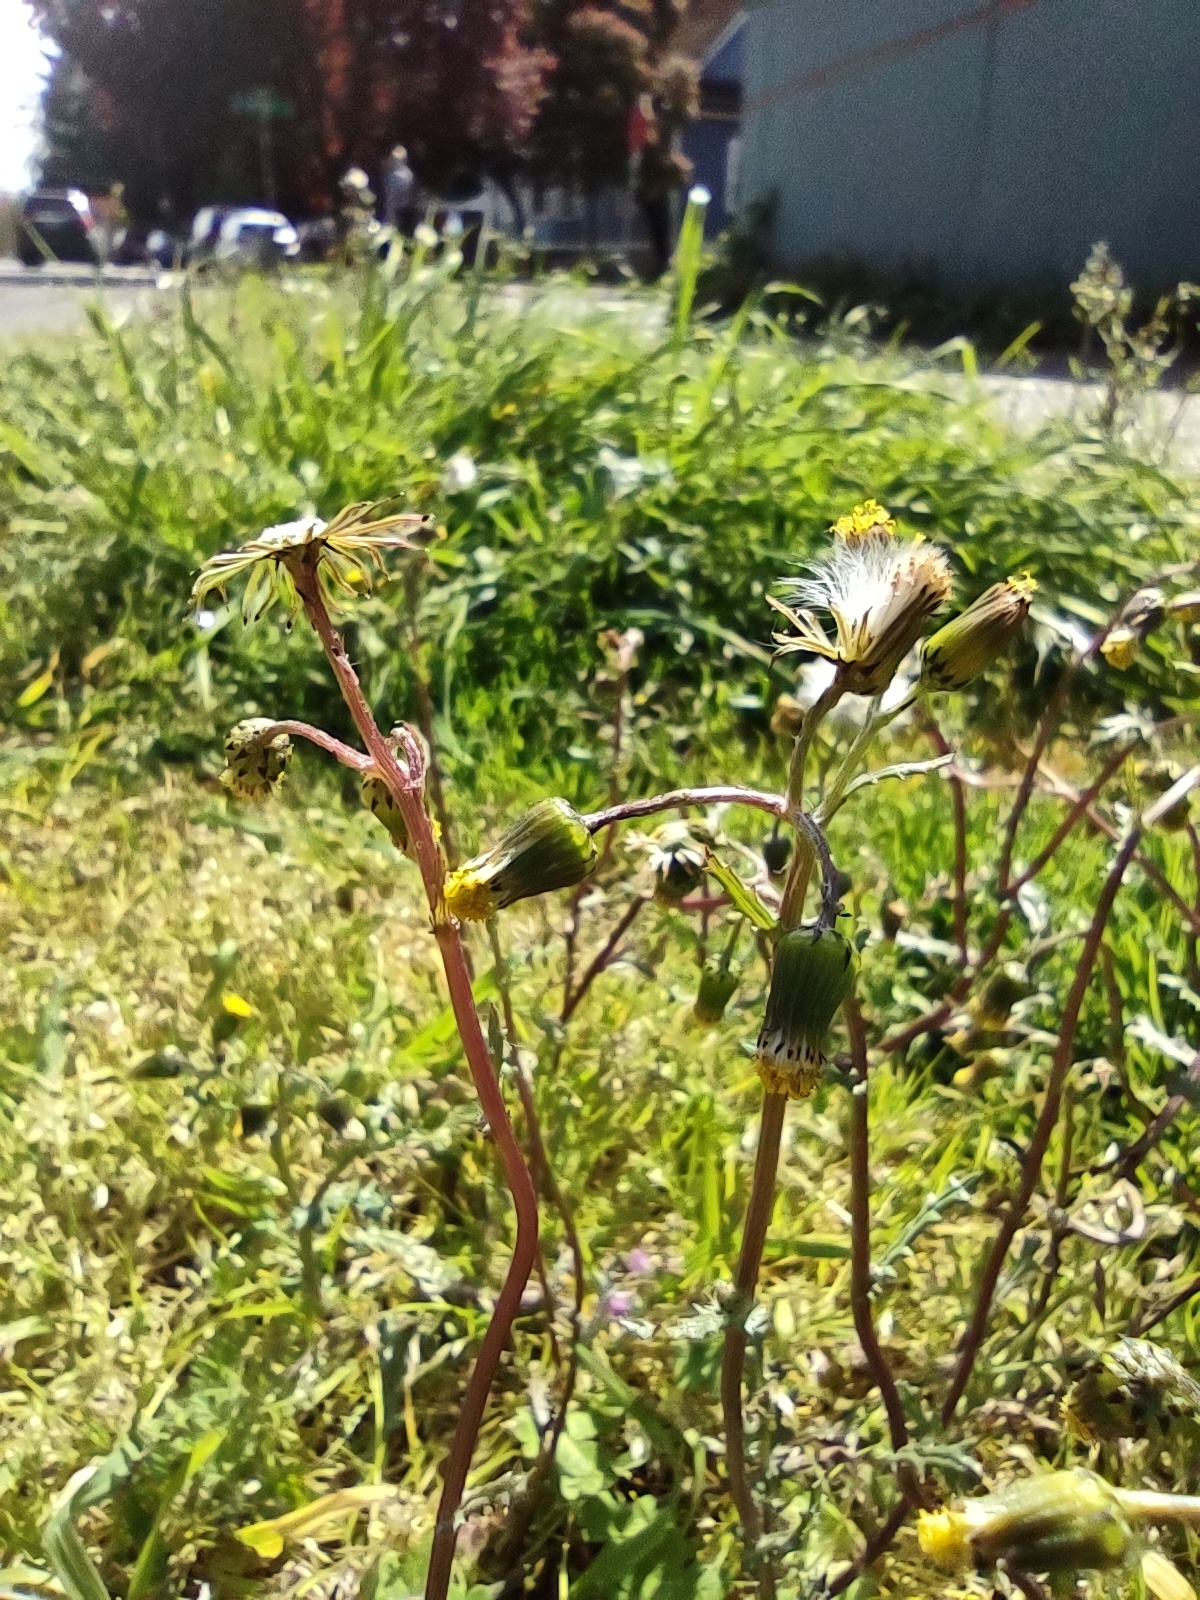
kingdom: Plantae
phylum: Tracheophyta
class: Magnoliopsida
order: Asterales
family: Asteraceae
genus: Senecio
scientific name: Senecio vulgaris
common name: Old-man-in-the-spring
